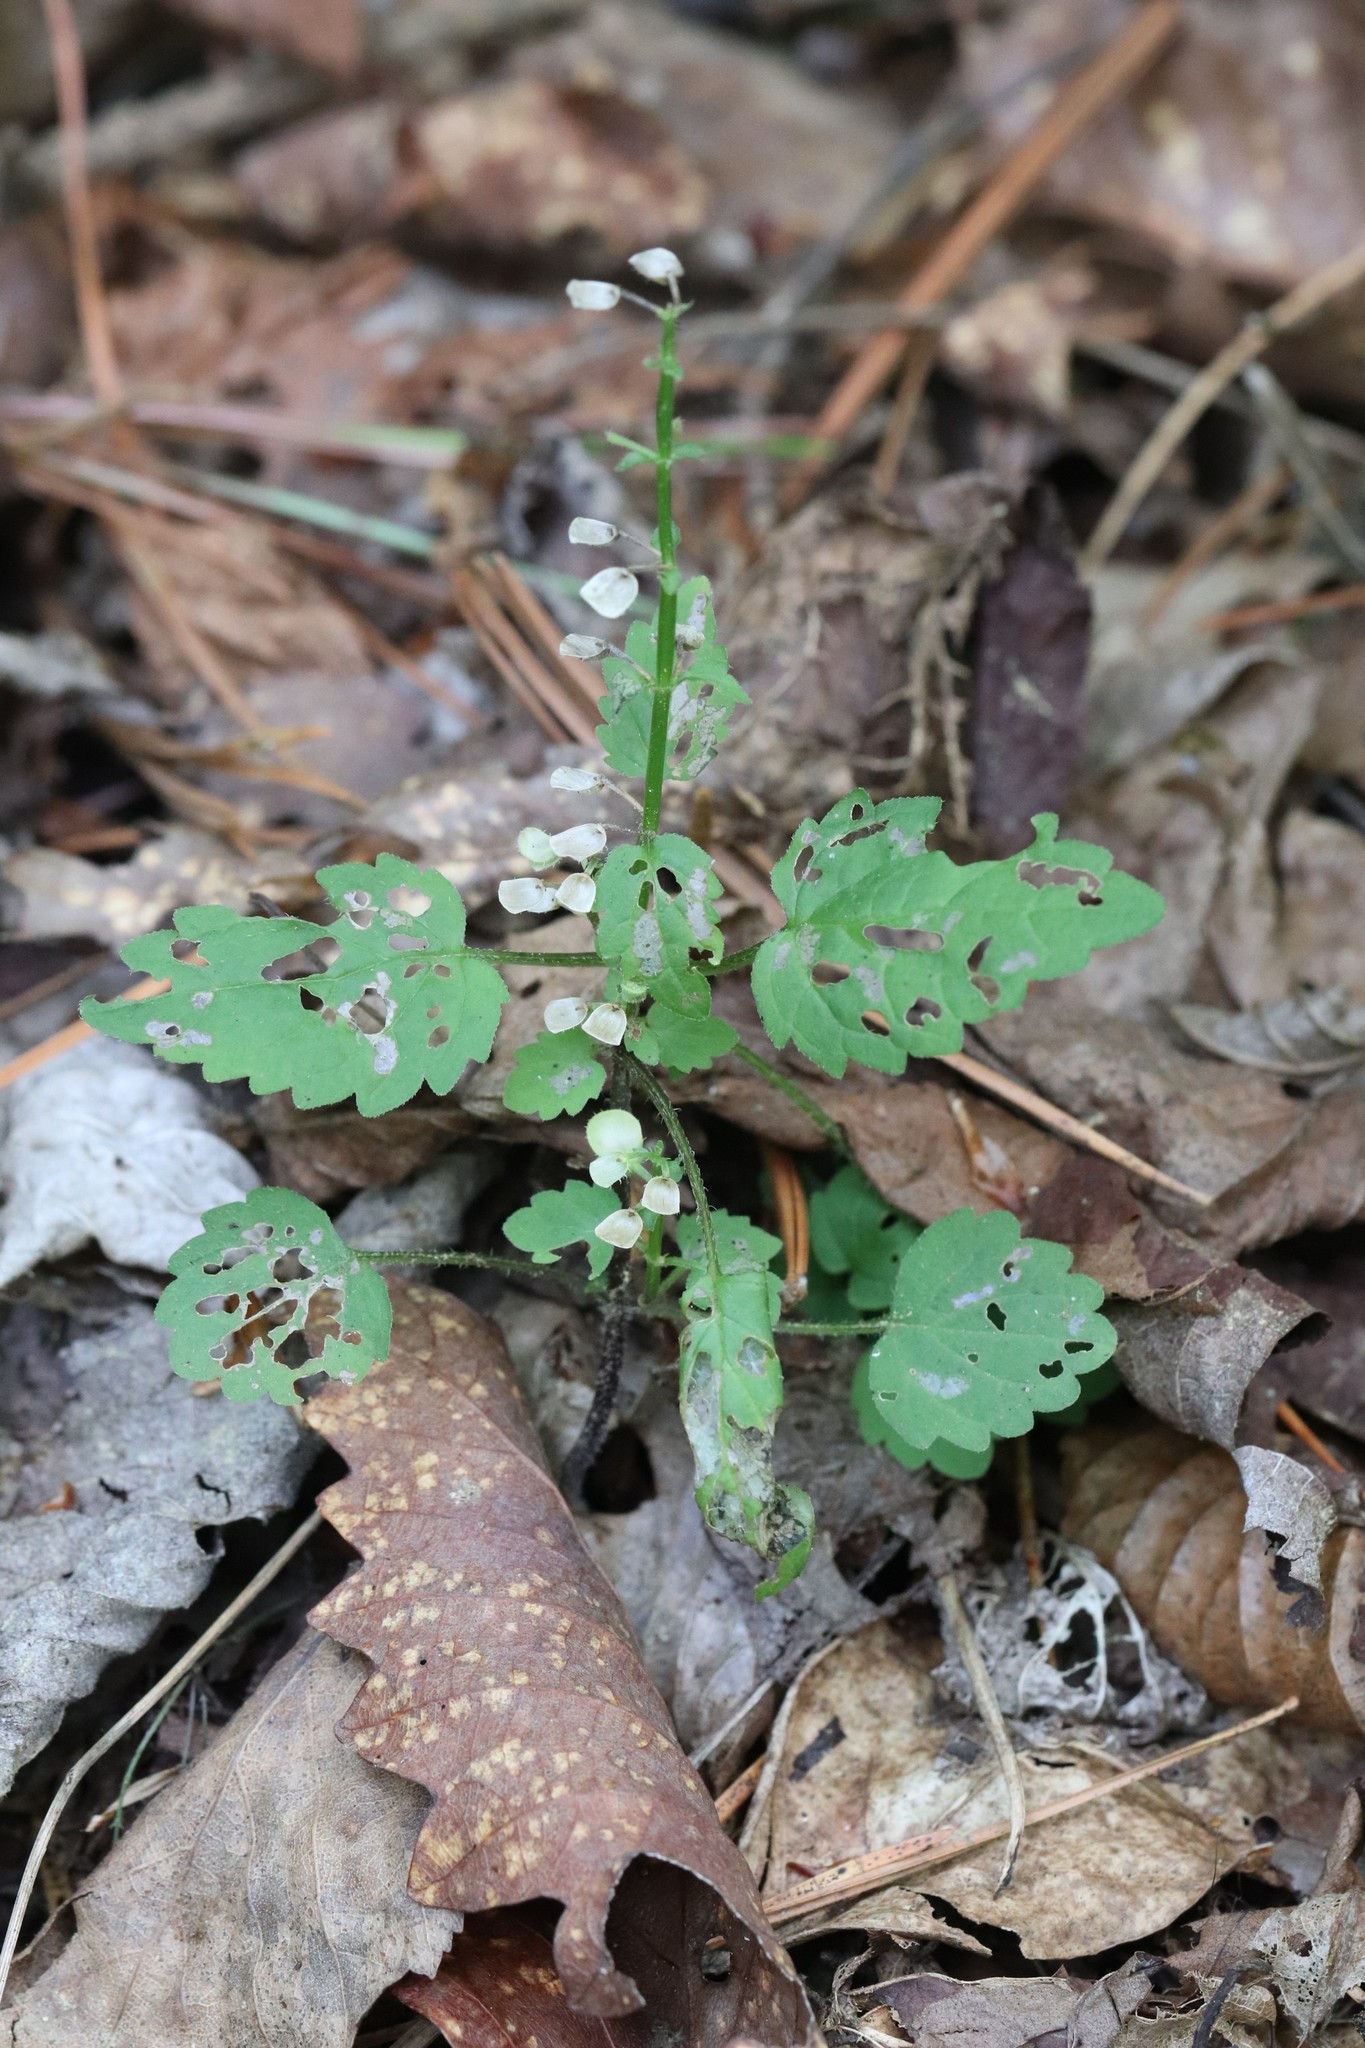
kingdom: Plantae
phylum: Tracheophyta
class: Magnoliopsida
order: Lamiales
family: Lamiaceae
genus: Scutellaria
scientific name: Scutellaria pekinensis
